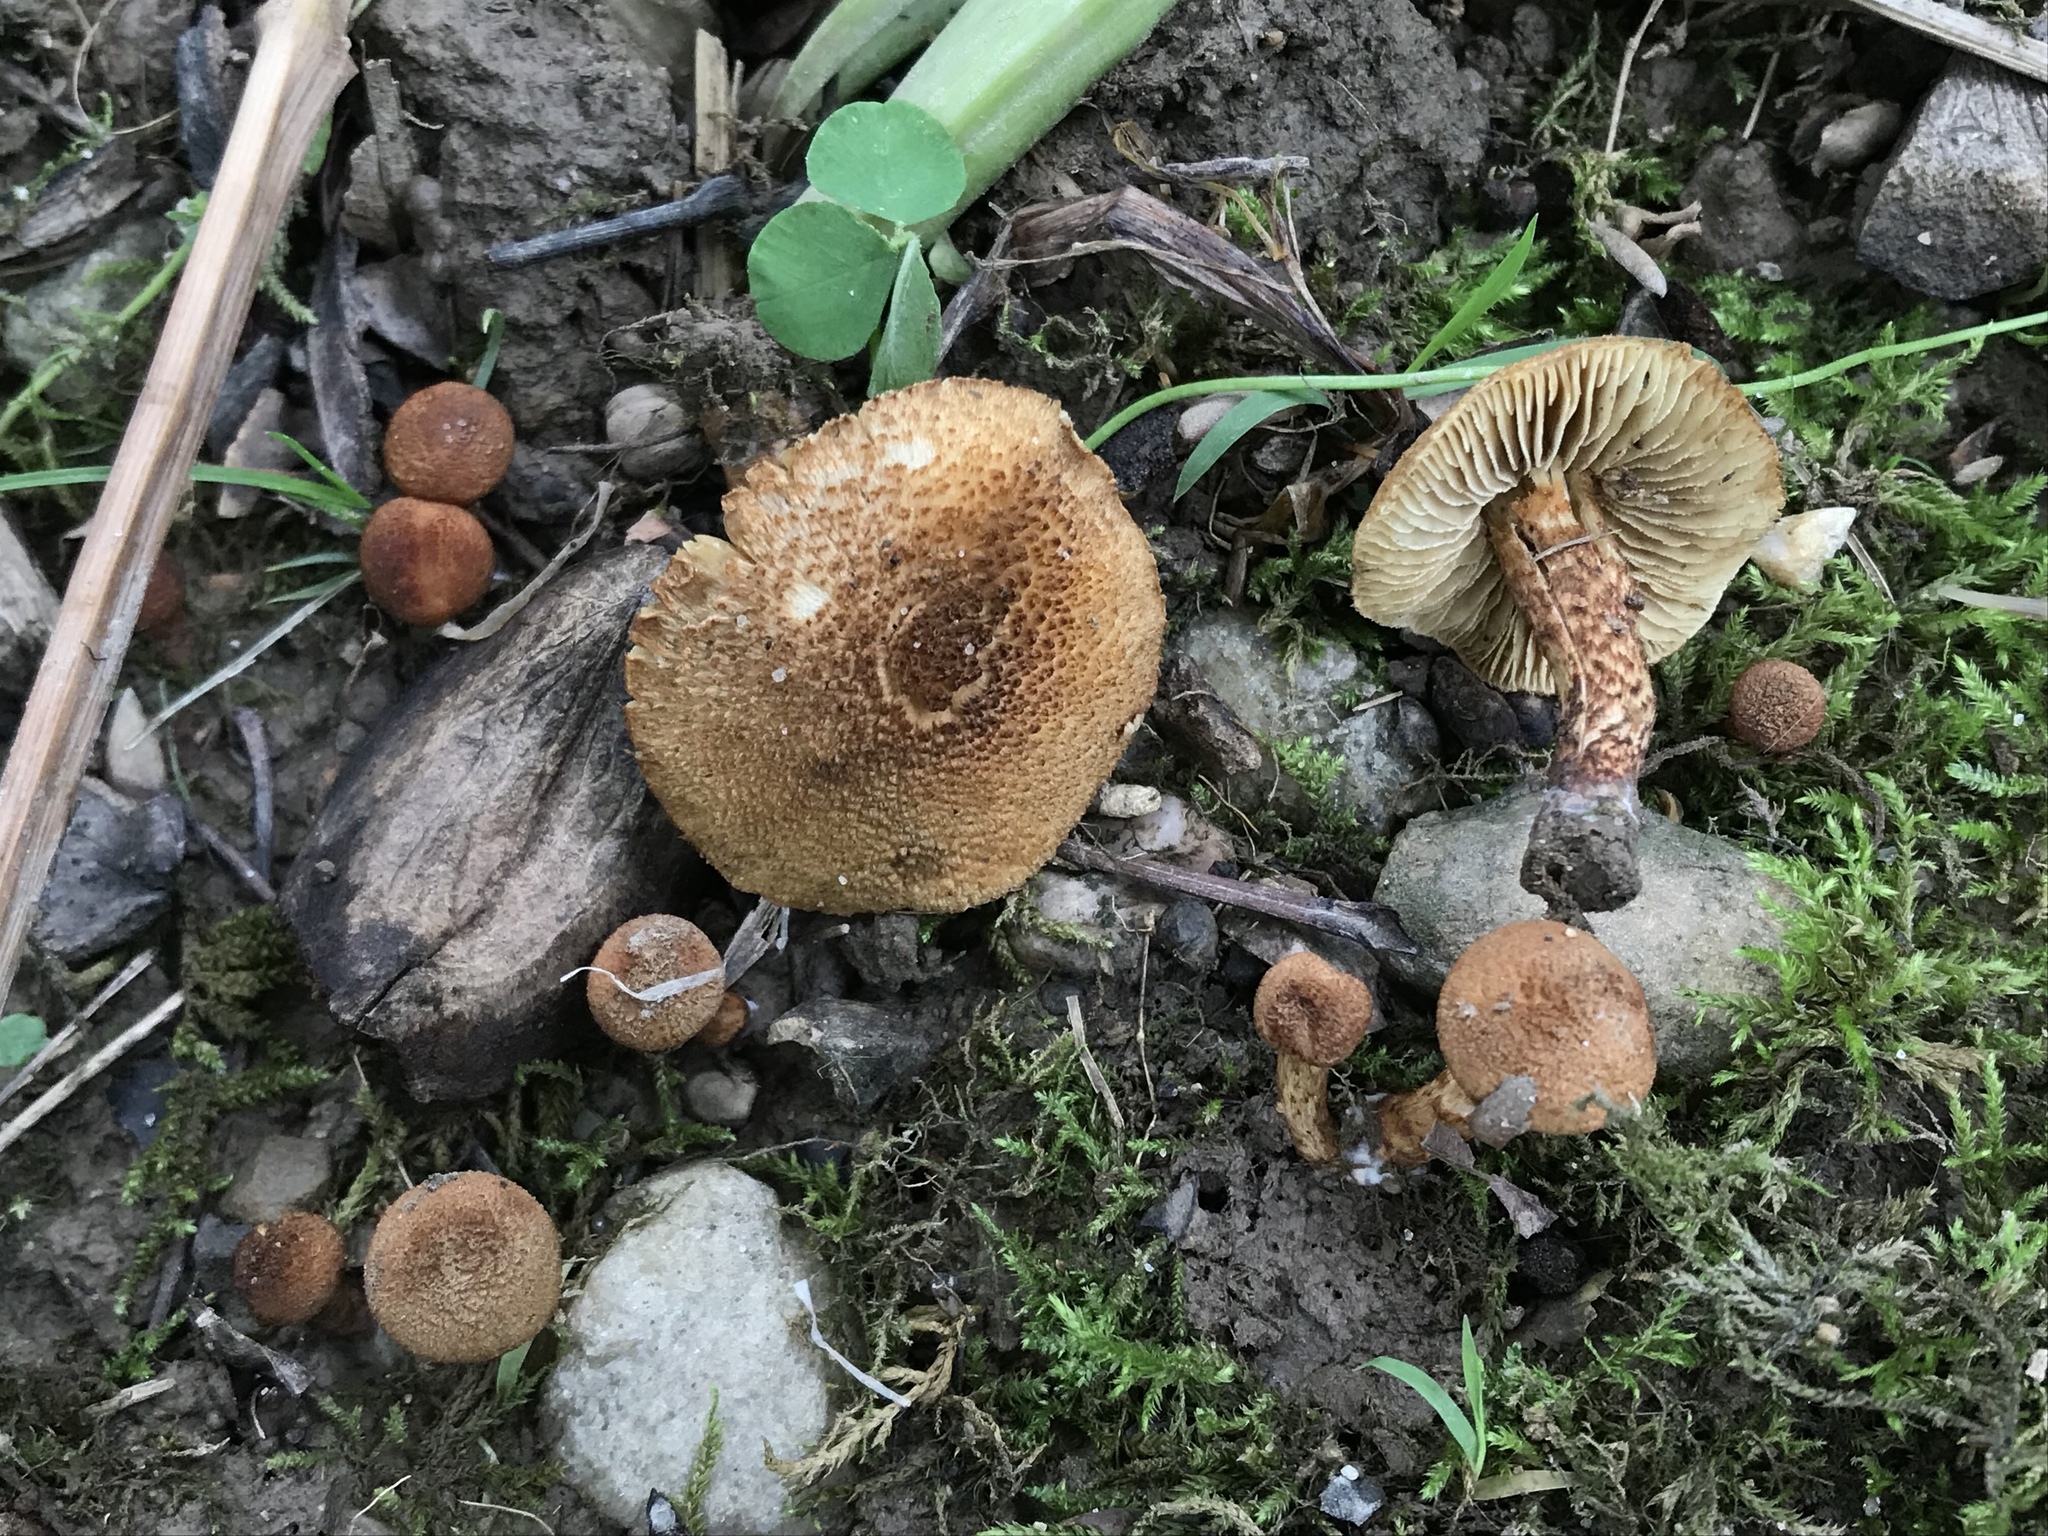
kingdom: Fungi
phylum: Basidiomycota
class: Agaricomycetes
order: Agaricales
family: Inocybaceae
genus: Mallocybe
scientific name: Mallocybe unicolor
